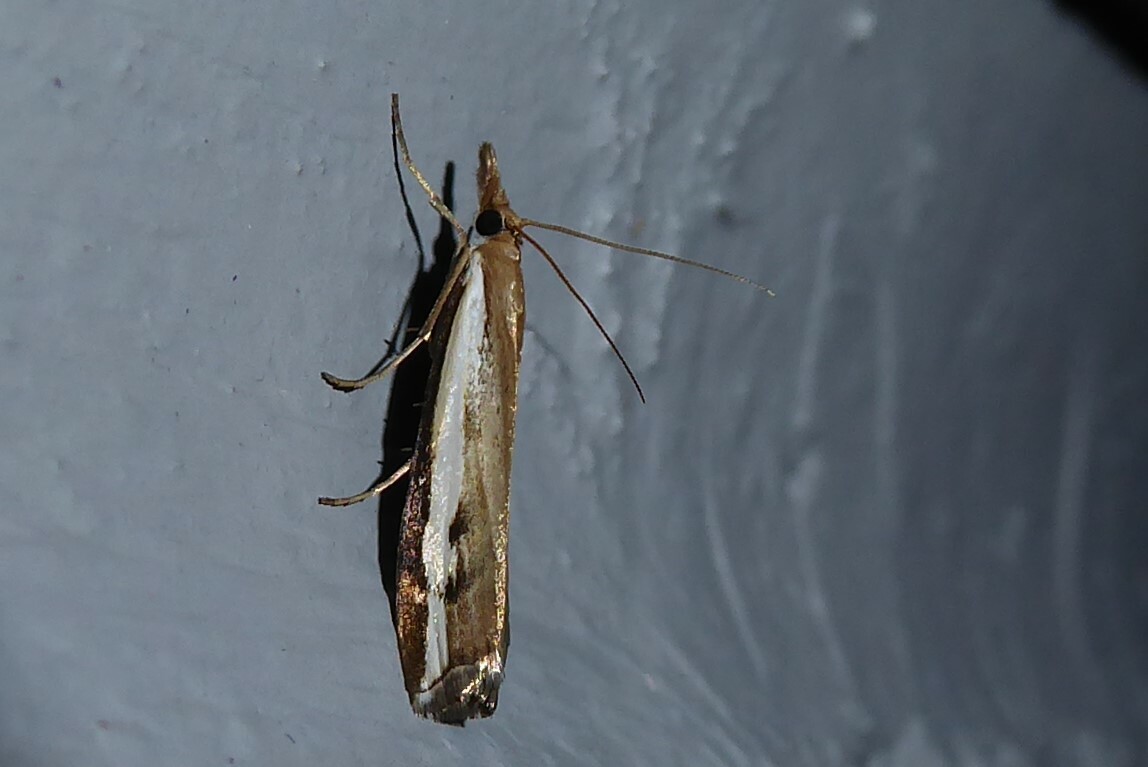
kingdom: Animalia
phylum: Arthropoda
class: Insecta
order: Lepidoptera
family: Crambidae
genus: Orocrambus
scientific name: Orocrambus flexuosellus
